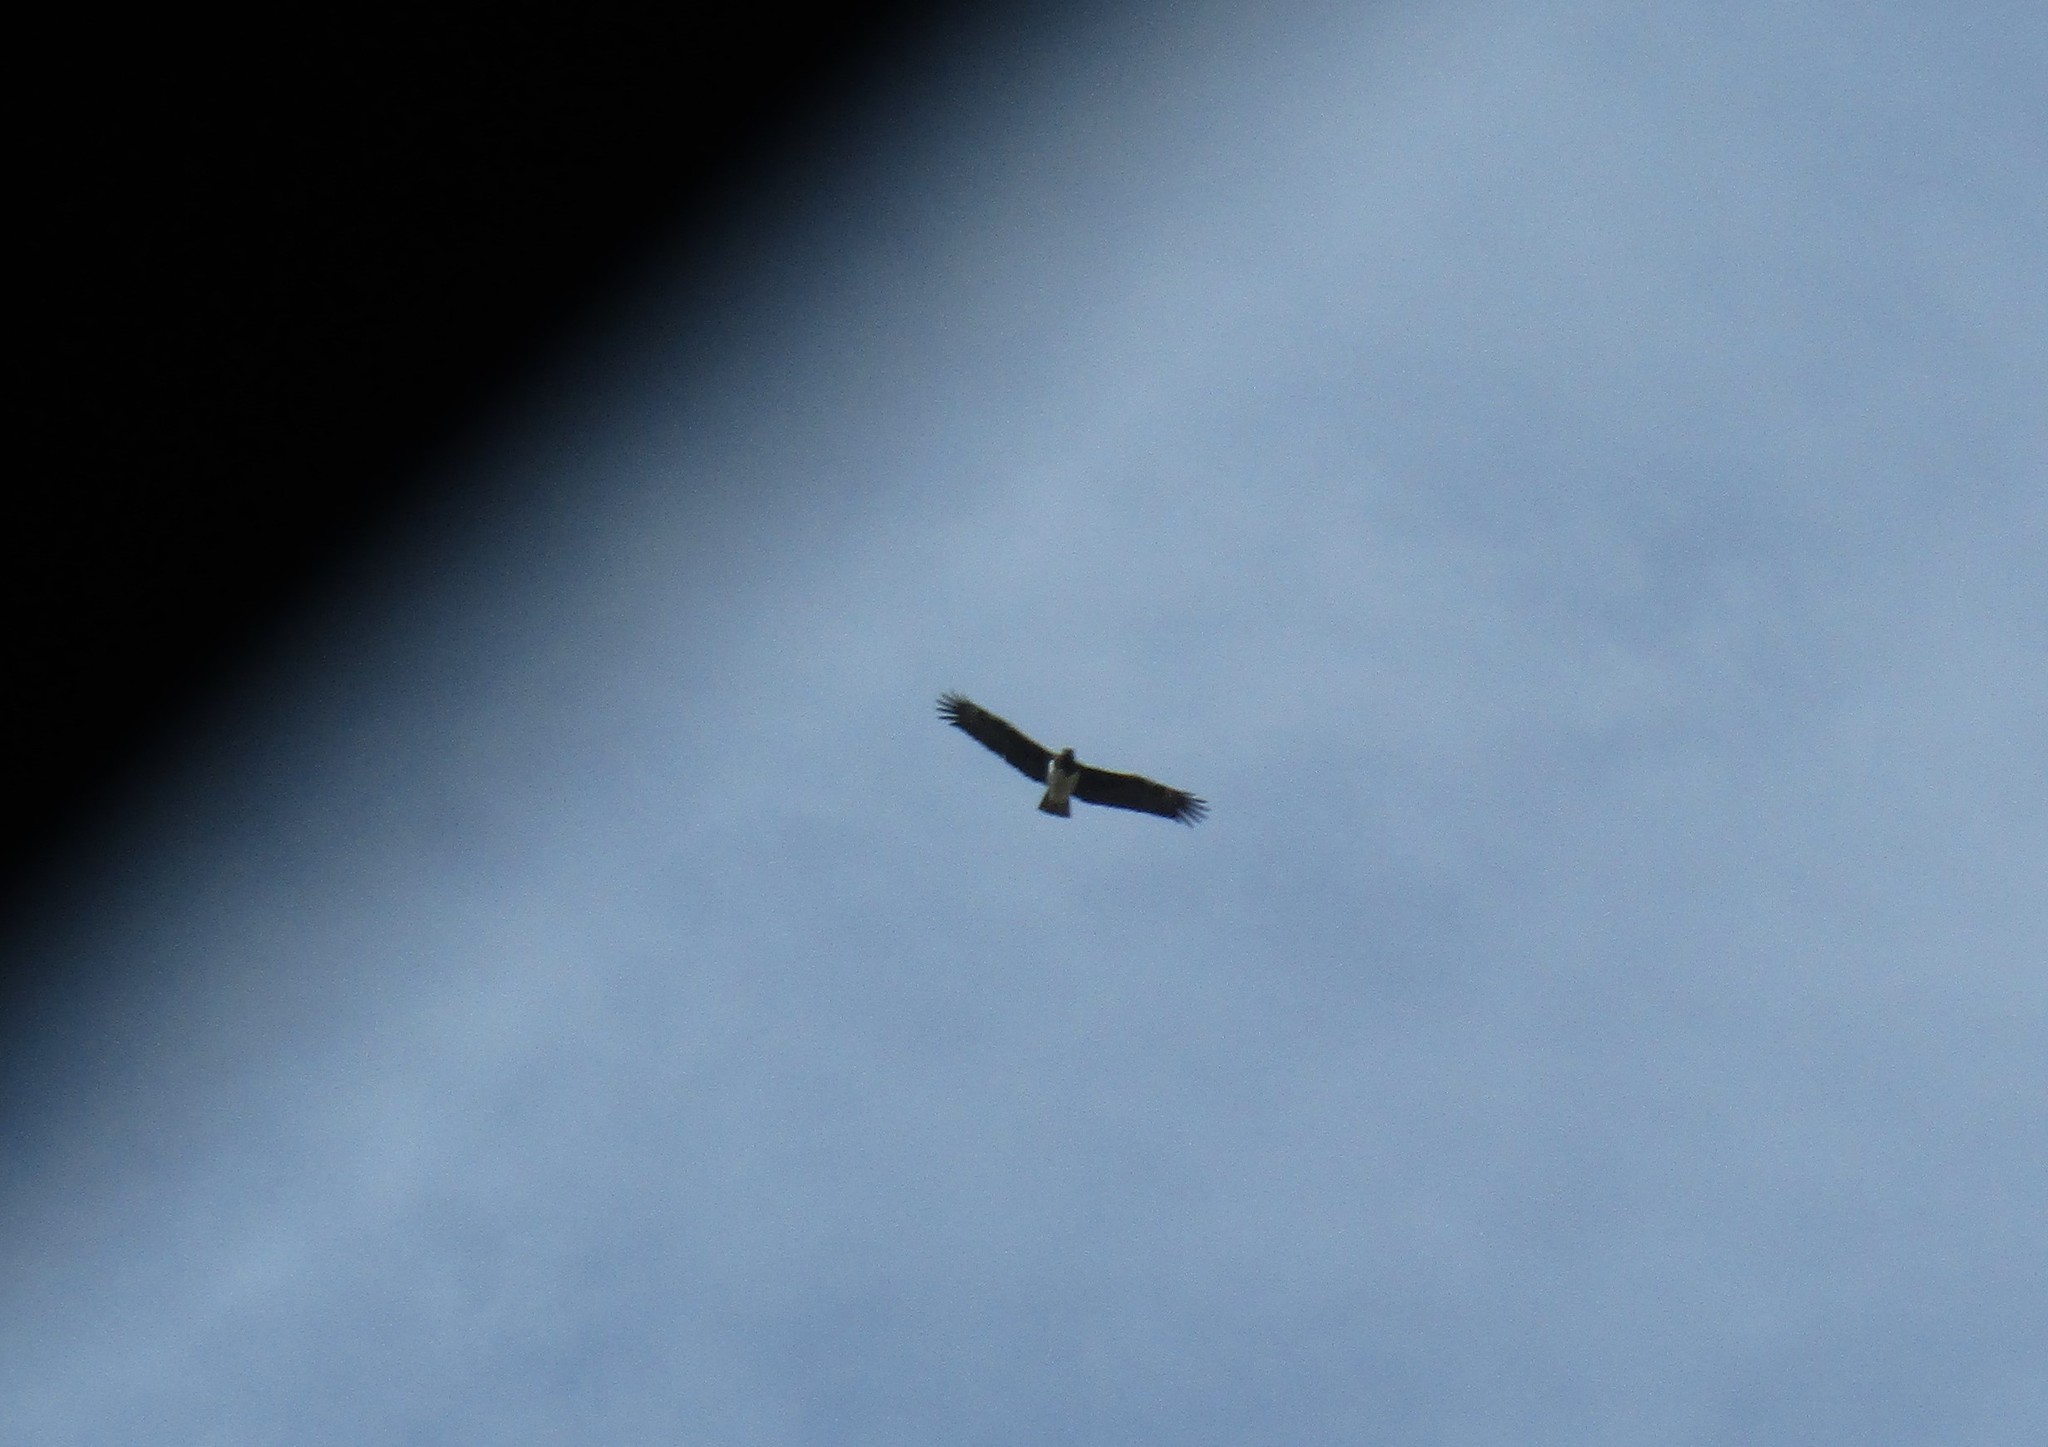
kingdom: Animalia
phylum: Chordata
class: Aves
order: Accipitriformes
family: Accipitridae
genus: Polemaetus
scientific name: Polemaetus bellicosus
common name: Martial eagle
